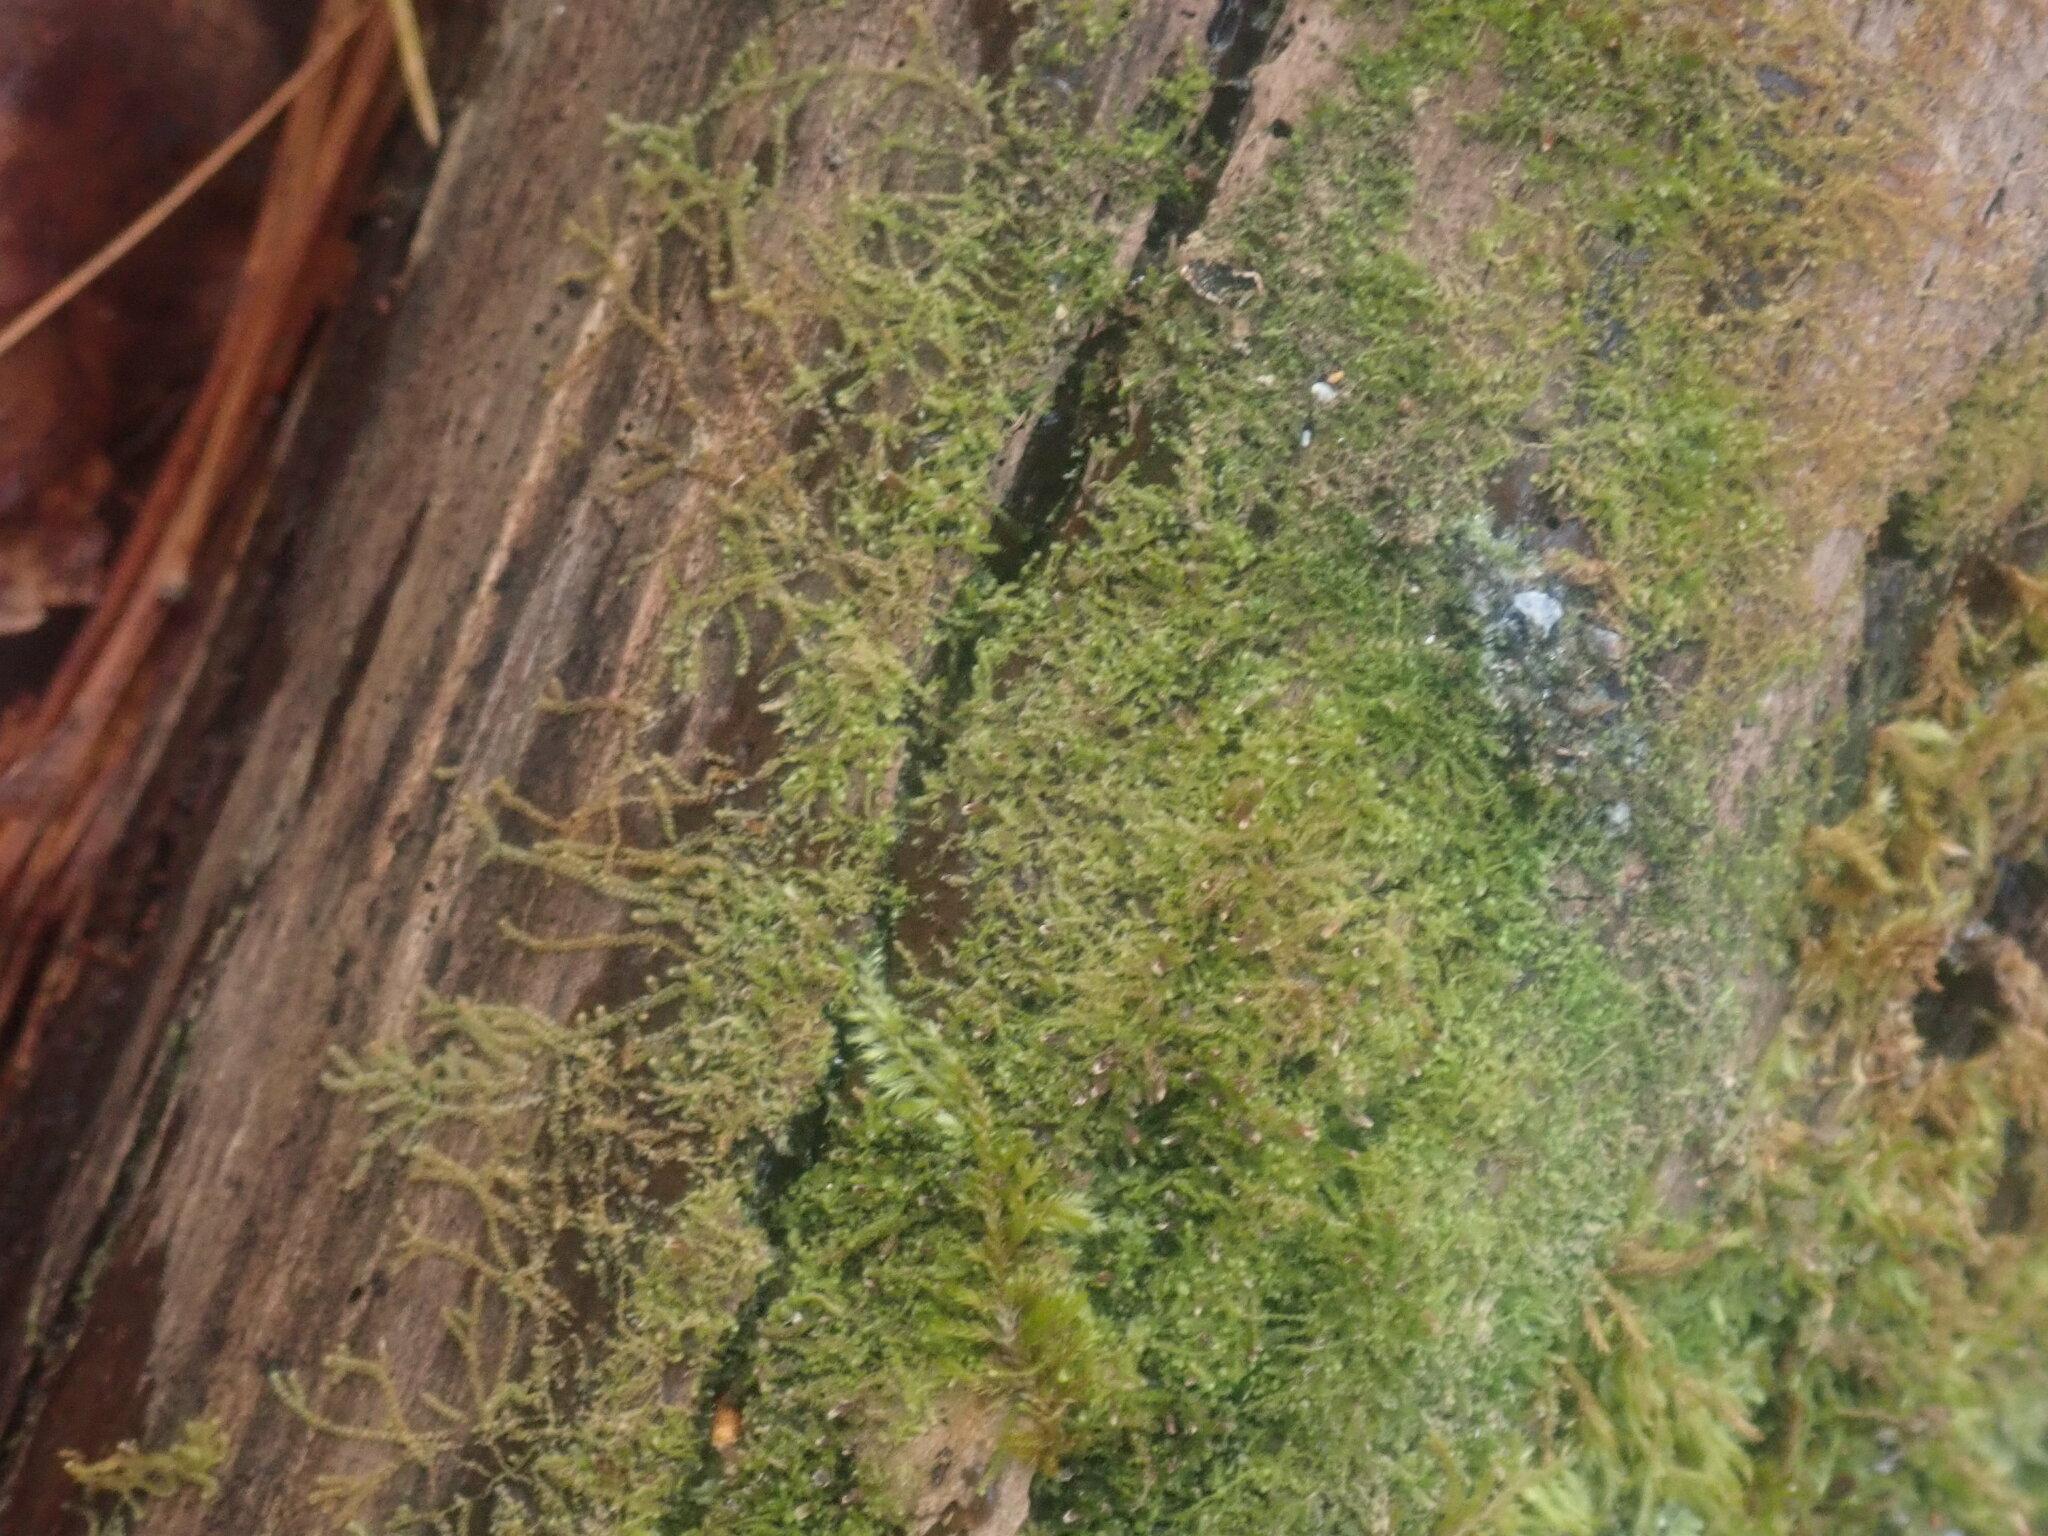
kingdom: Plantae
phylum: Marchantiophyta
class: Jungermanniopsida
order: Jungermanniales
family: Cephaloziaceae
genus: Nowellia
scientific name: Nowellia curvifolia
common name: Wood rustwort
